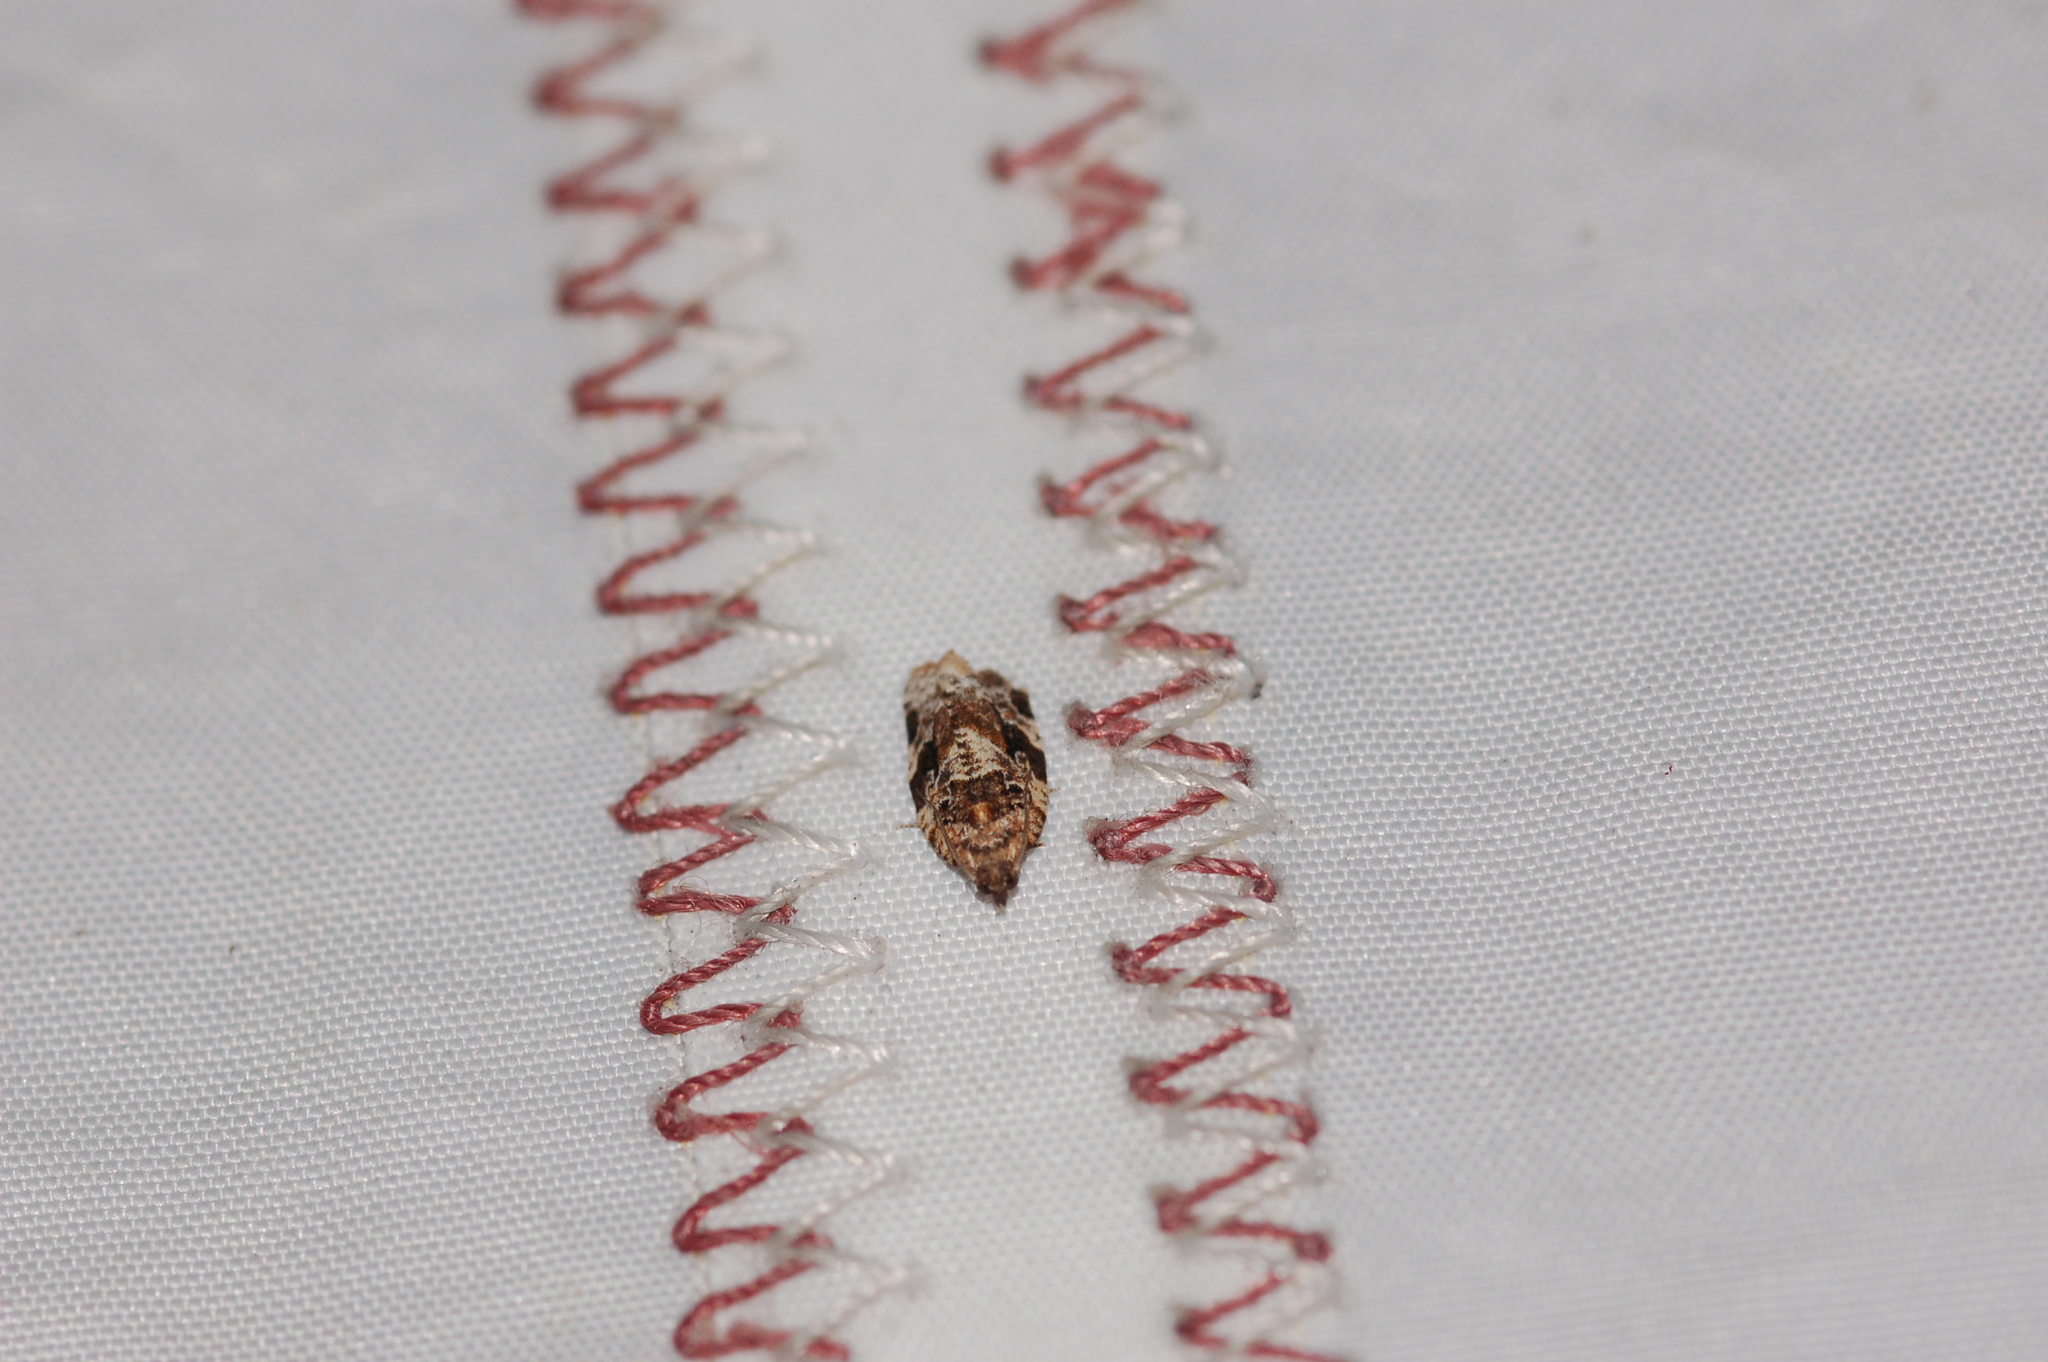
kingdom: Animalia
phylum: Arthropoda
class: Insecta
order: Lepidoptera
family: Tortricidae
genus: Argyrotaenia
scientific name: Argyrotaenia velutinana
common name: Red-banded leafroller moth
